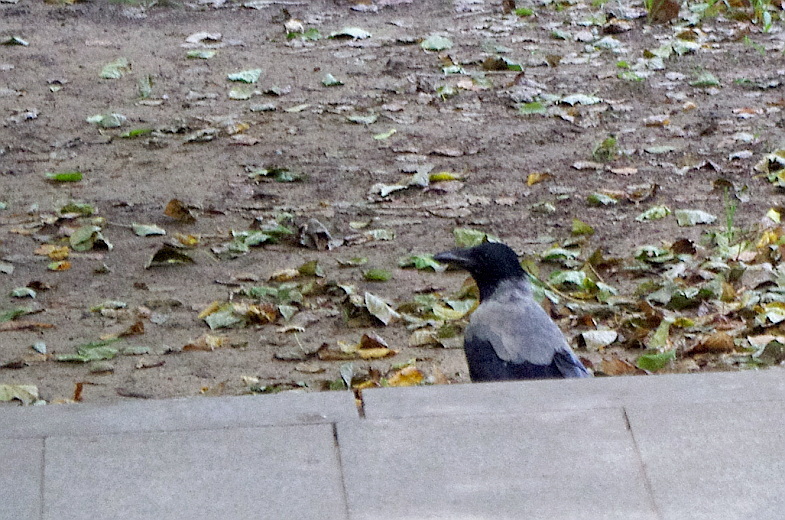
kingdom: Animalia
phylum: Chordata
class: Aves
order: Passeriformes
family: Corvidae
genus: Corvus
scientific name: Corvus cornix
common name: Hooded crow
